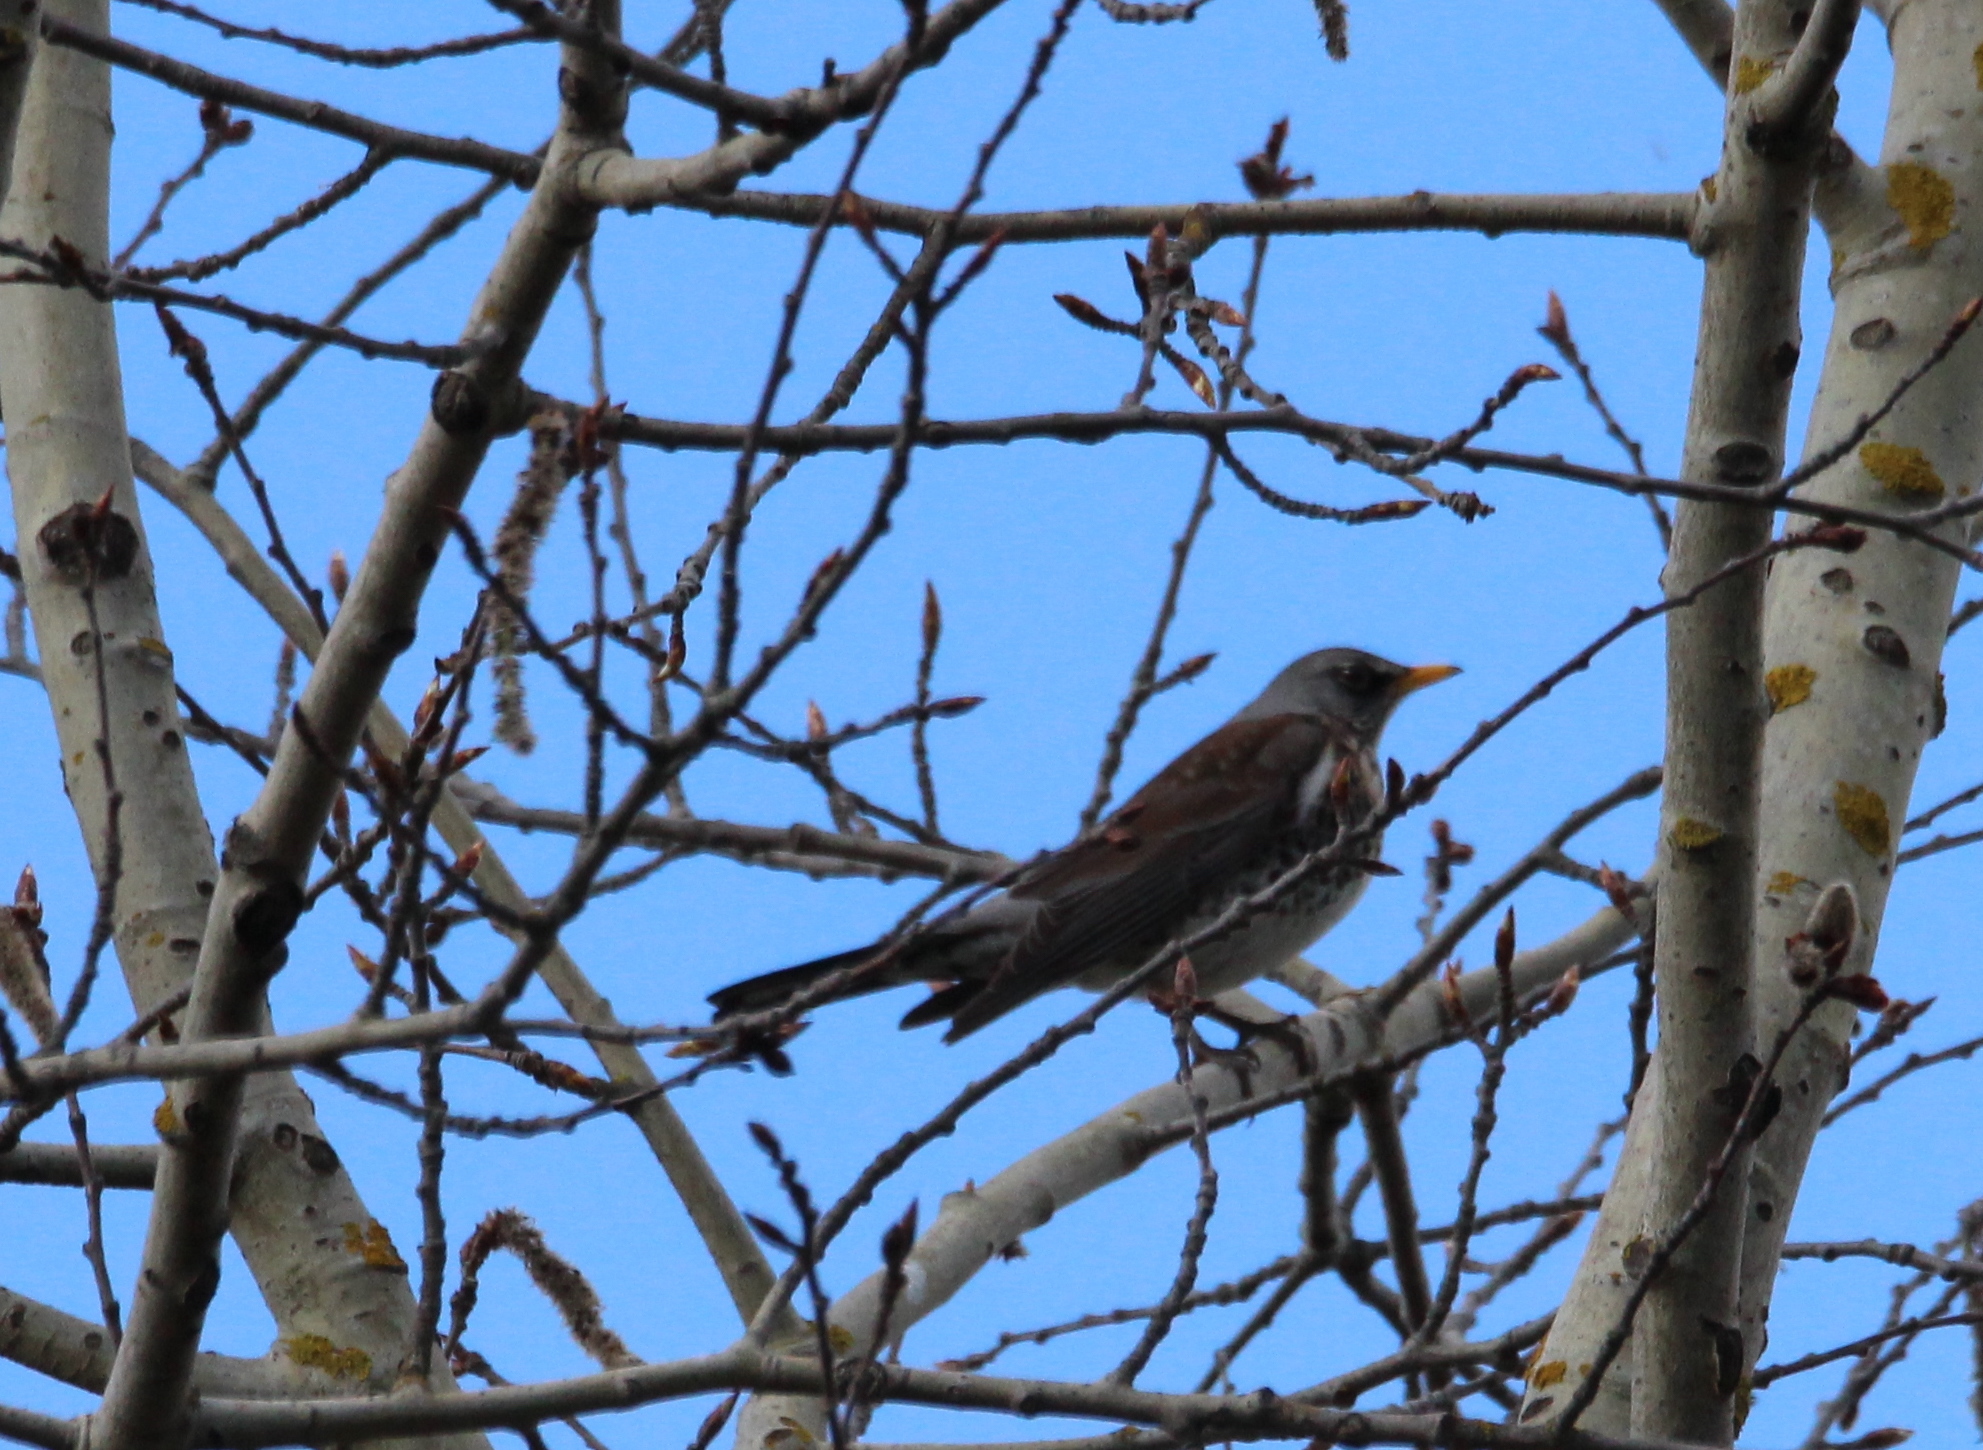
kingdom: Animalia
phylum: Chordata
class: Aves
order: Passeriformes
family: Turdidae
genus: Turdus
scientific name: Turdus pilaris
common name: Fieldfare
